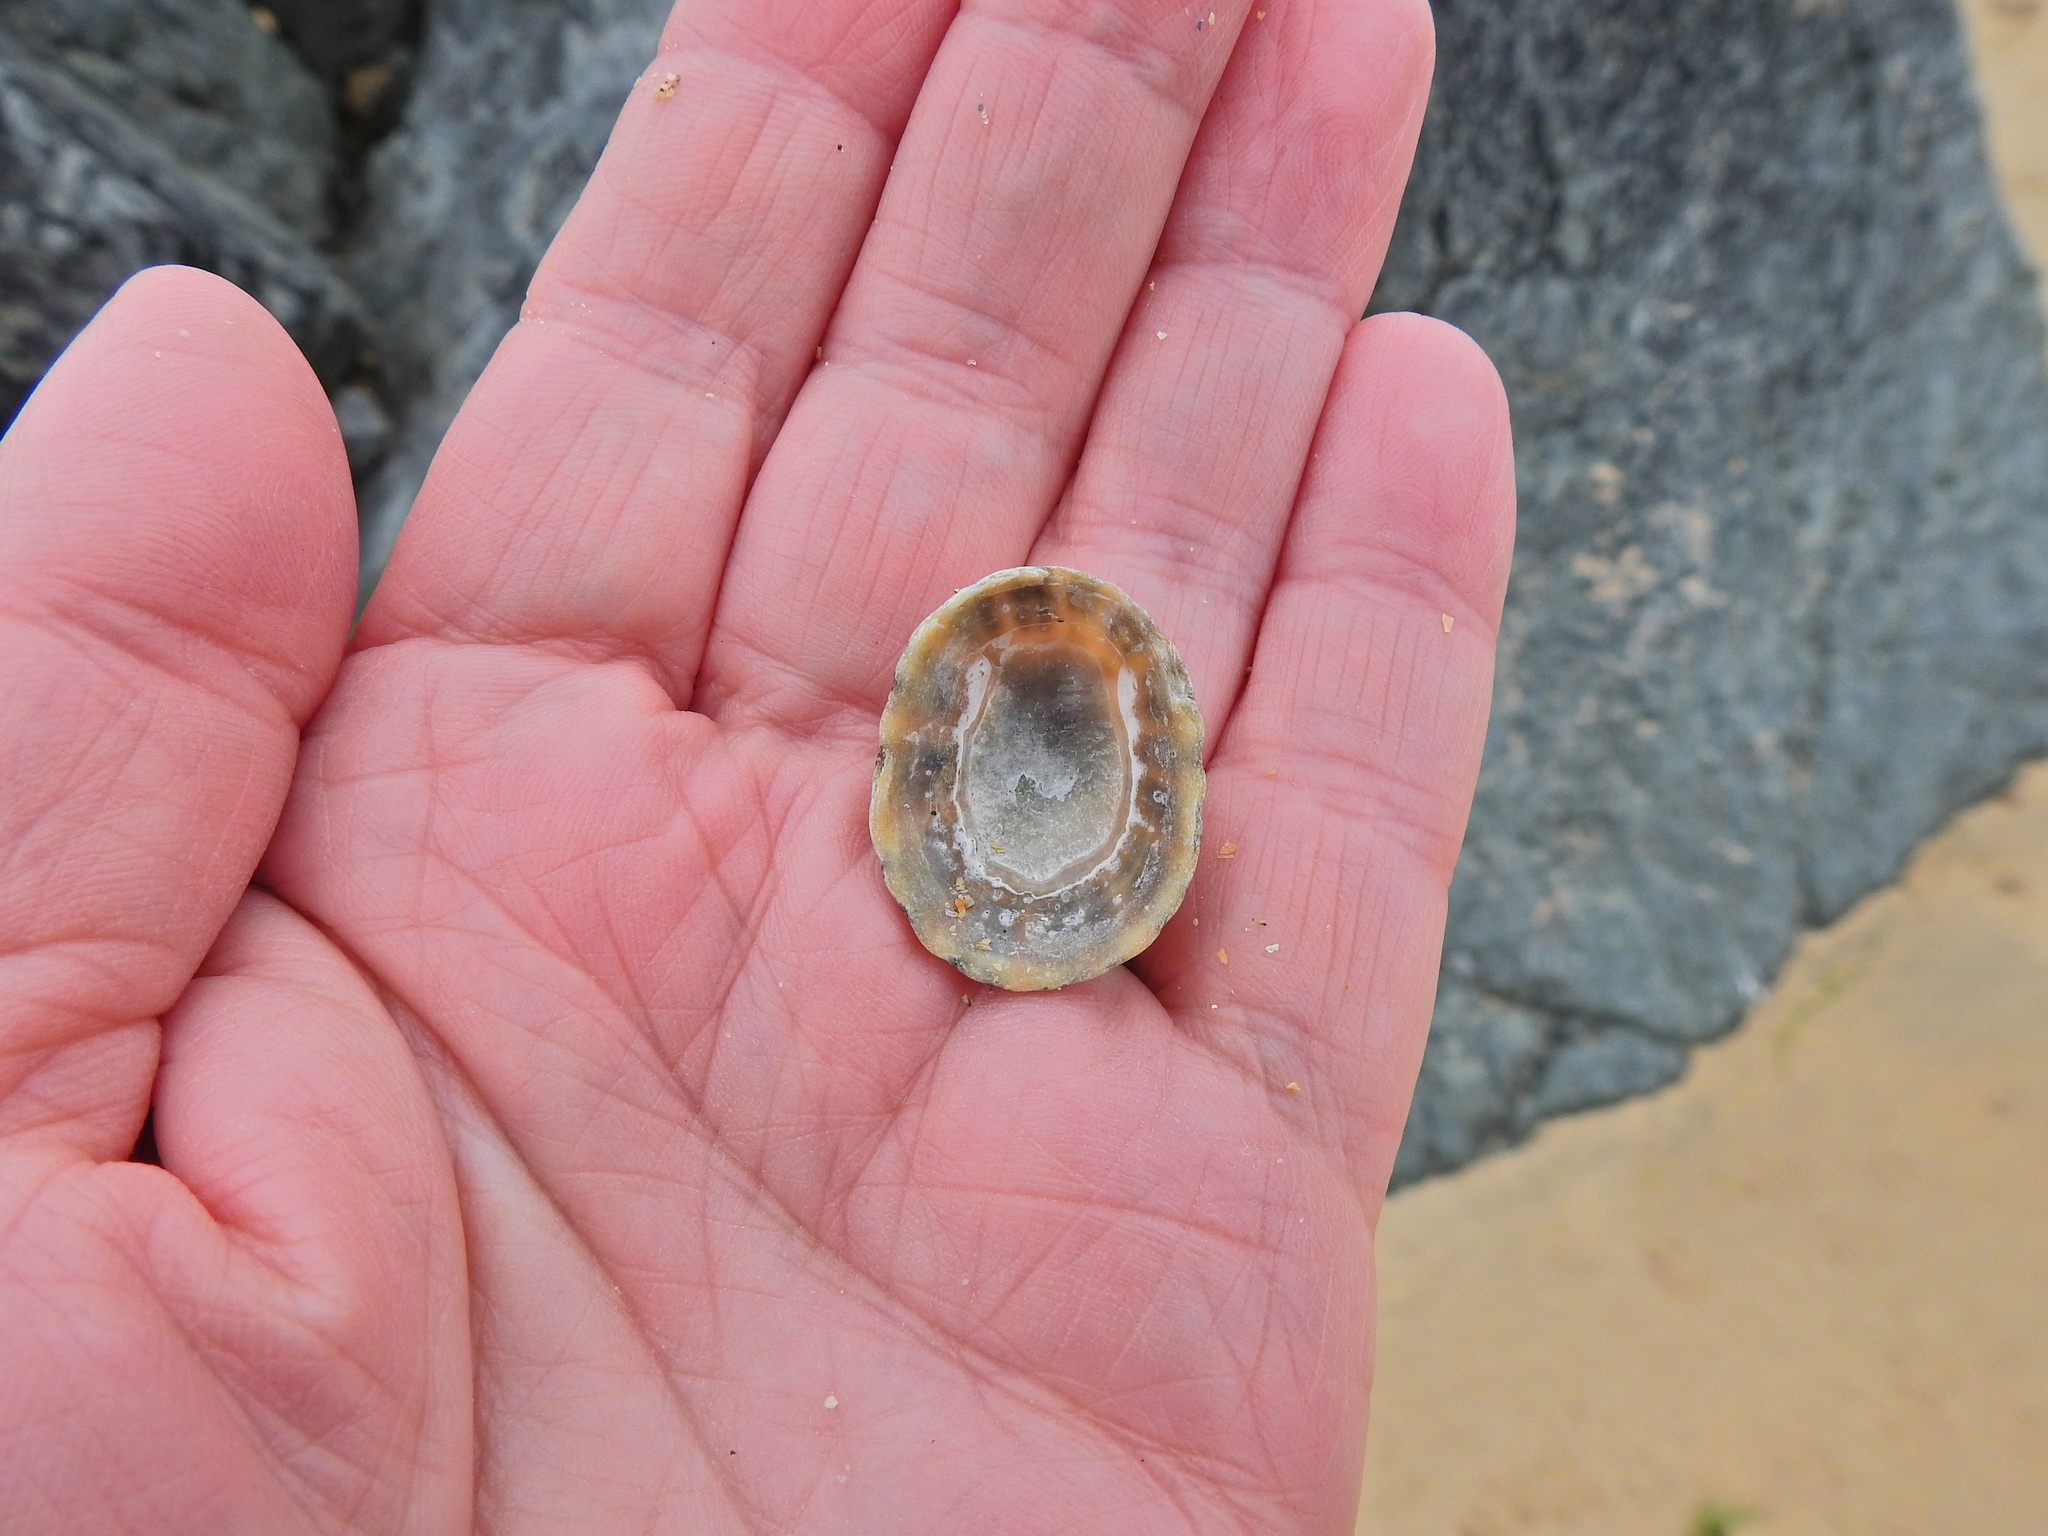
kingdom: Animalia
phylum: Mollusca
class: Gastropoda
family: Patellidae
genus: Patella
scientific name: Patella vulgata
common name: Common limpet
